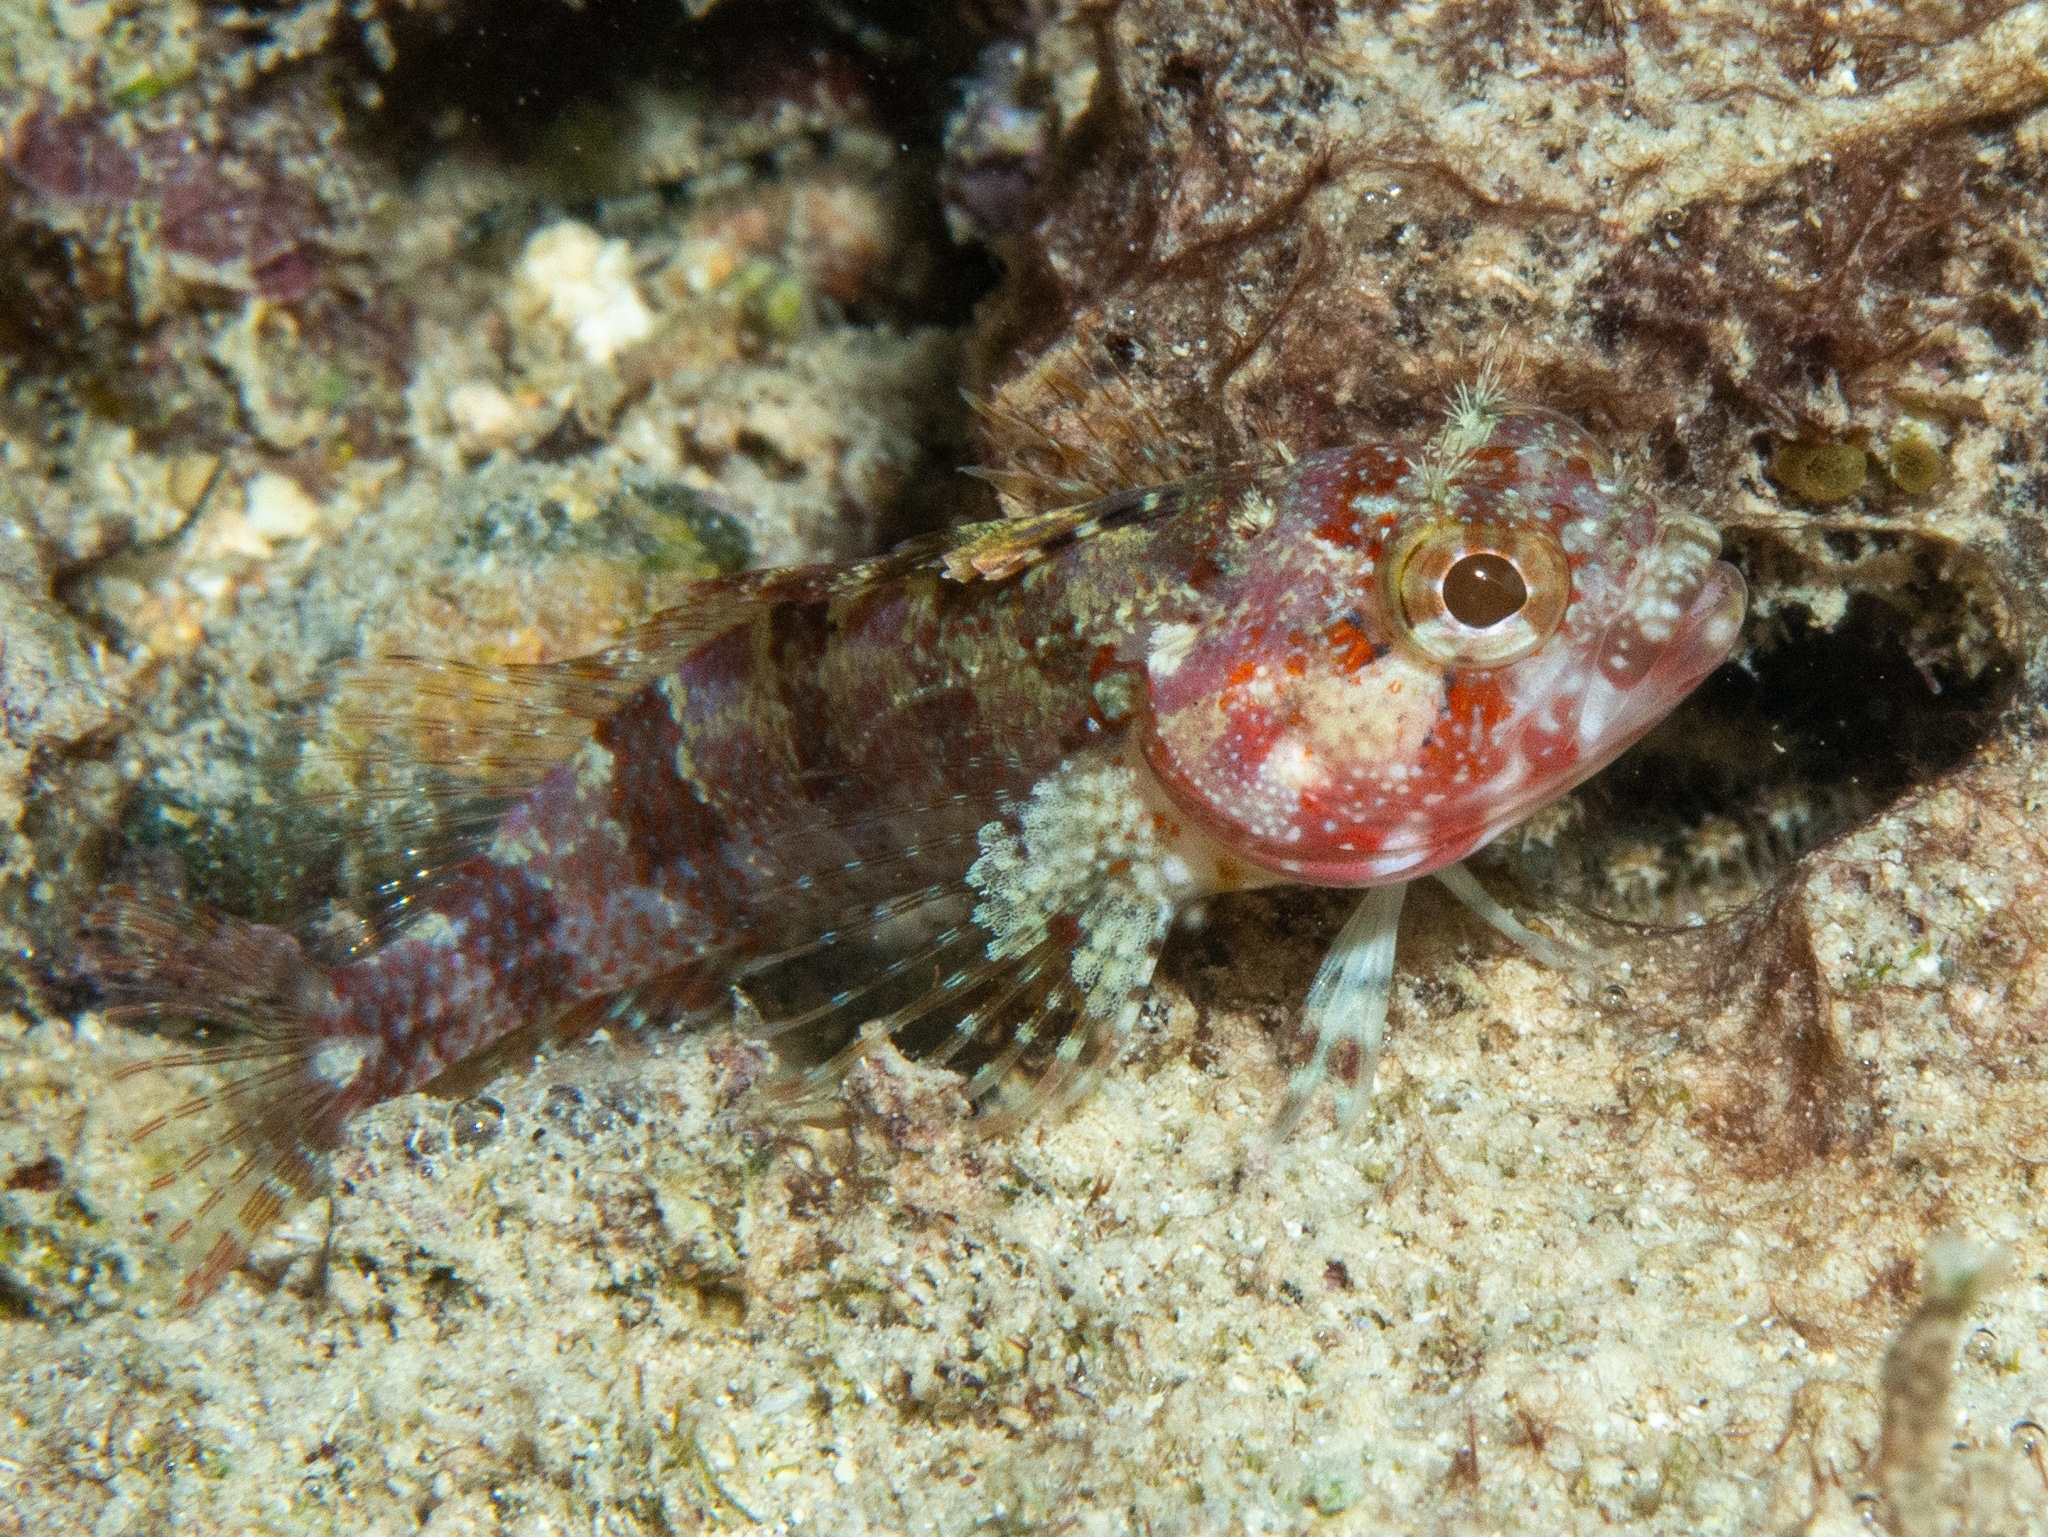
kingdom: Animalia
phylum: Chordata
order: Perciformes
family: Labrisomidae
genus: Gobioclinus
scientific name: Gobioclinus bucciferus
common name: Puffcheek blenny
